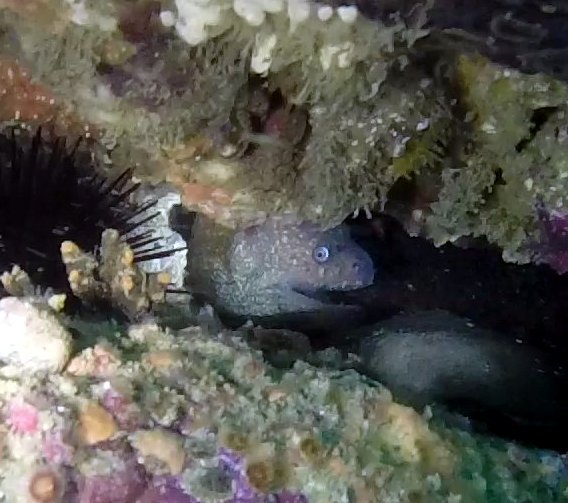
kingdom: Animalia
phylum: Chordata
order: Anguilliformes
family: Muraenidae
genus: Gymnothorax
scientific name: Gymnothorax mordax
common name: California moray
